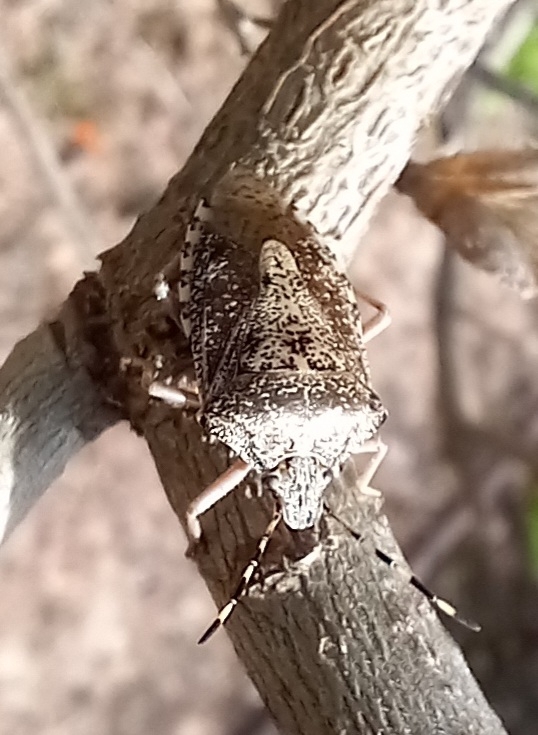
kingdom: Animalia
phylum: Arthropoda
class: Insecta
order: Hemiptera
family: Pentatomidae
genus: Rhaphigaster
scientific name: Rhaphigaster nebulosa
